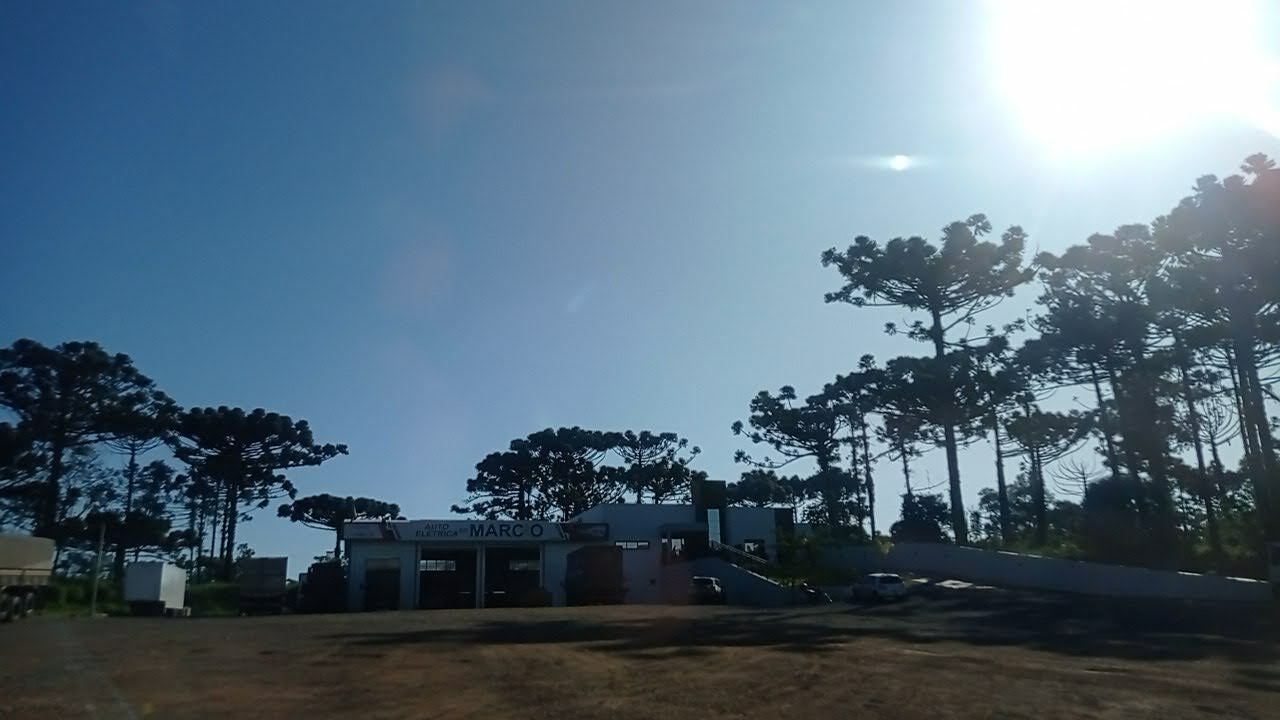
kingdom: Plantae
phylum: Tracheophyta
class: Pinopsida
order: Pinales
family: Araucariaceae
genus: Araucaria
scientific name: Araucaria angustifolia
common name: Candelabra tree
